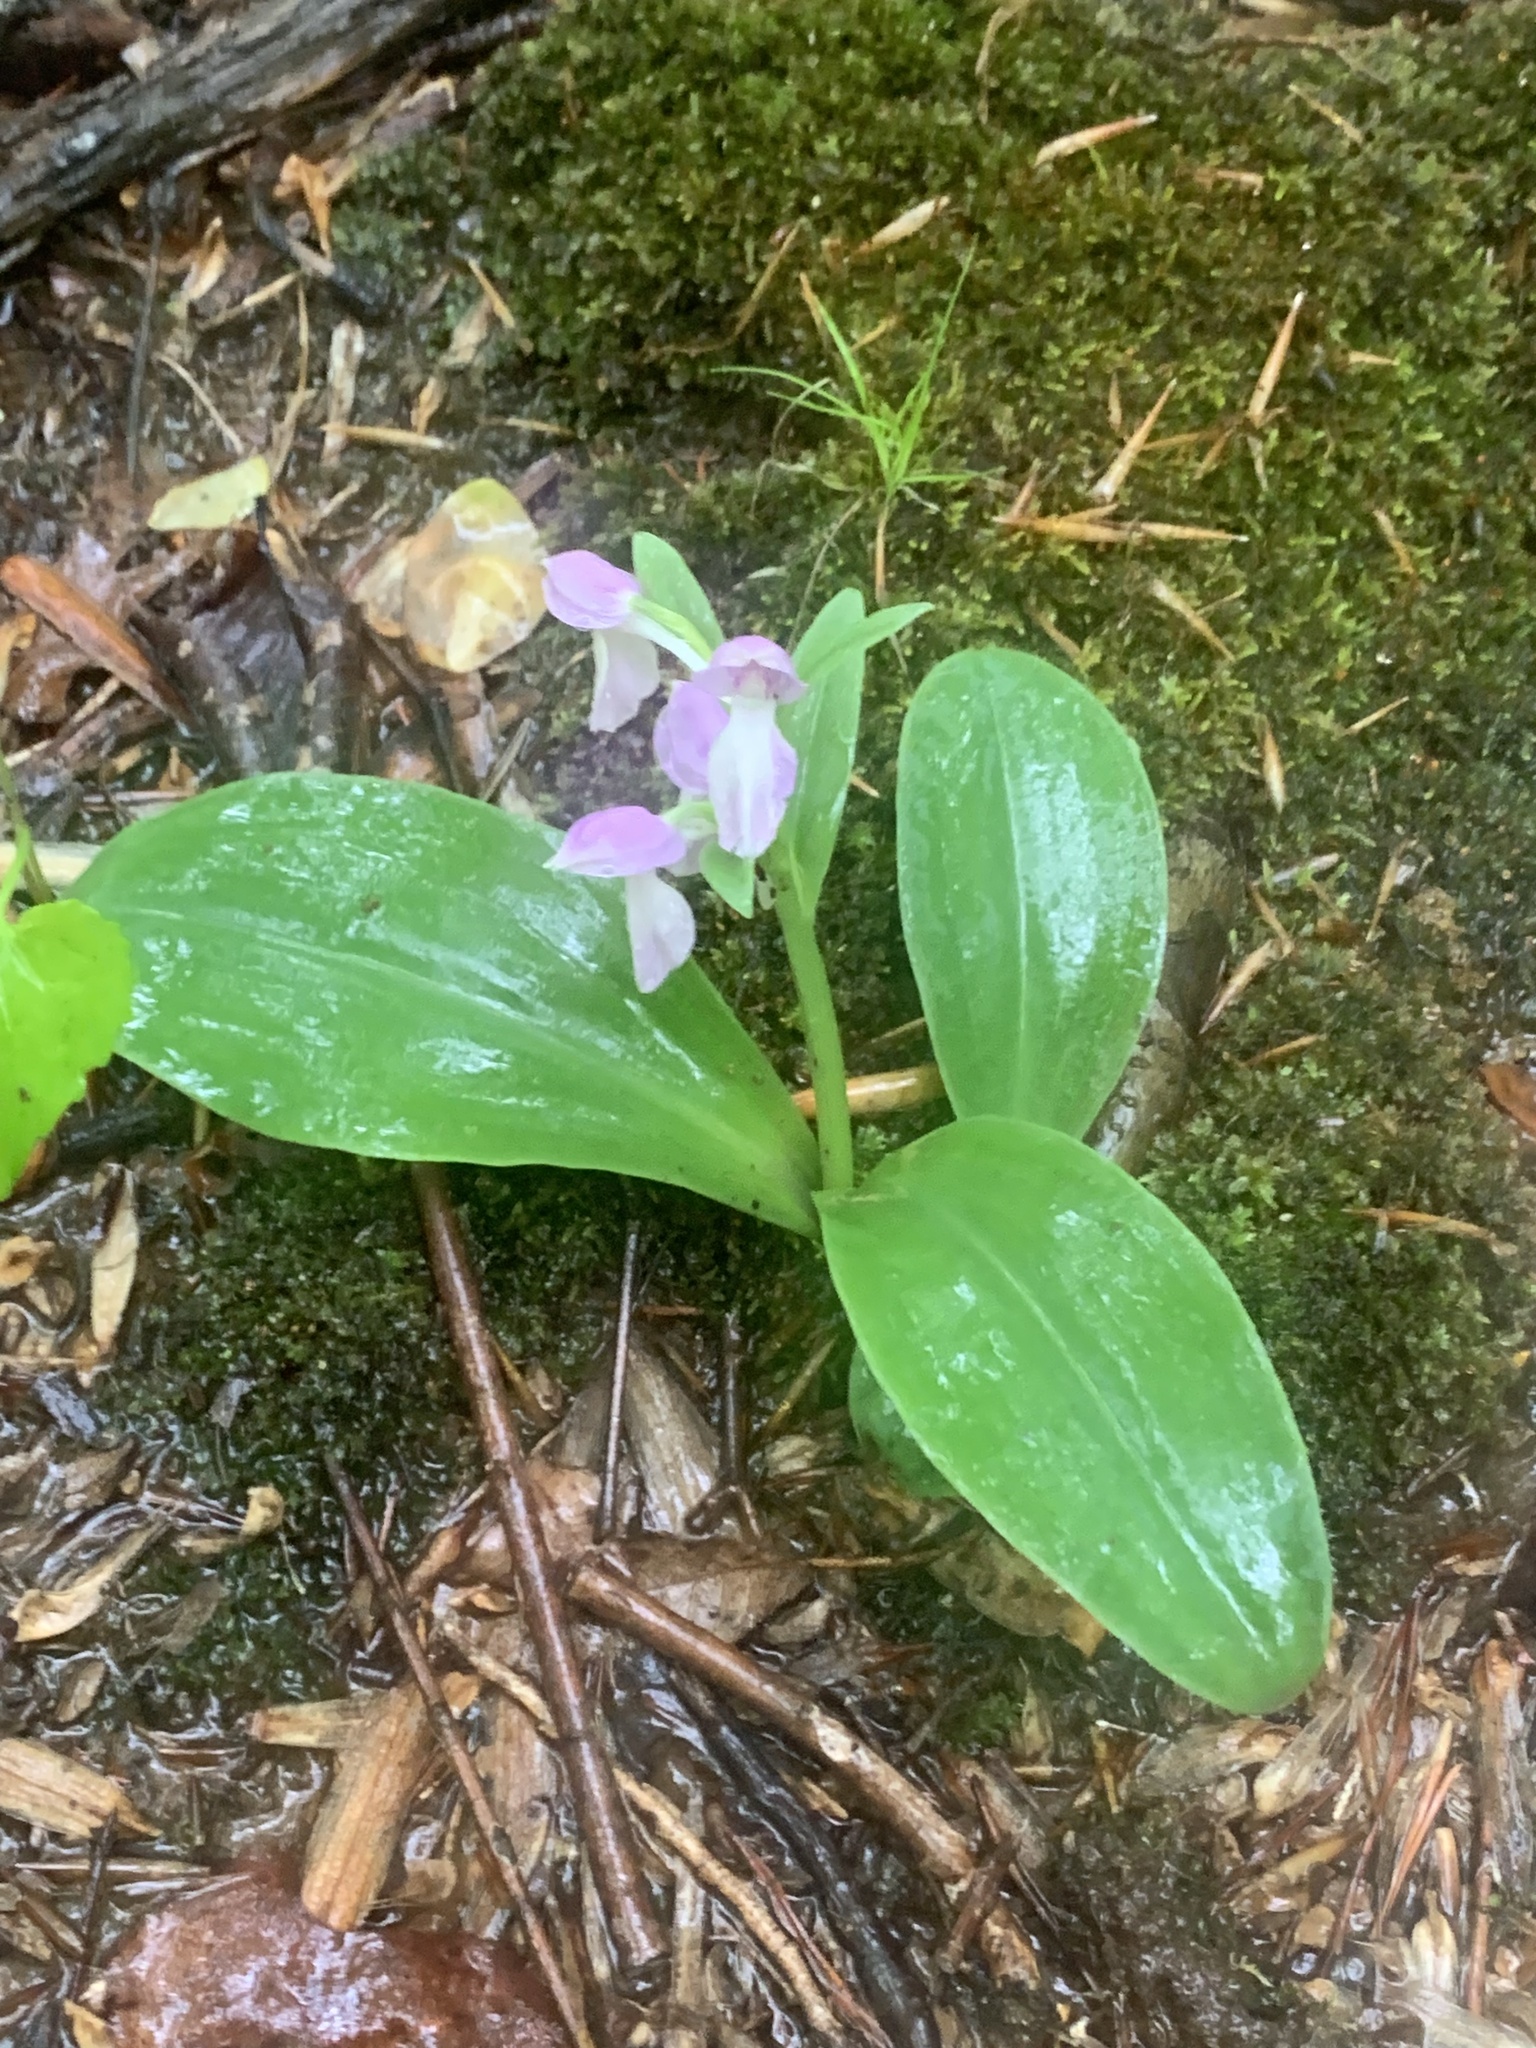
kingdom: Plantae
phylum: Tracheophyta
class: Liliopsida
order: Asparagales
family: Orchidaceae
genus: Galearis
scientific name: Galearis spectabilis
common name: Purple-hooded orchis
